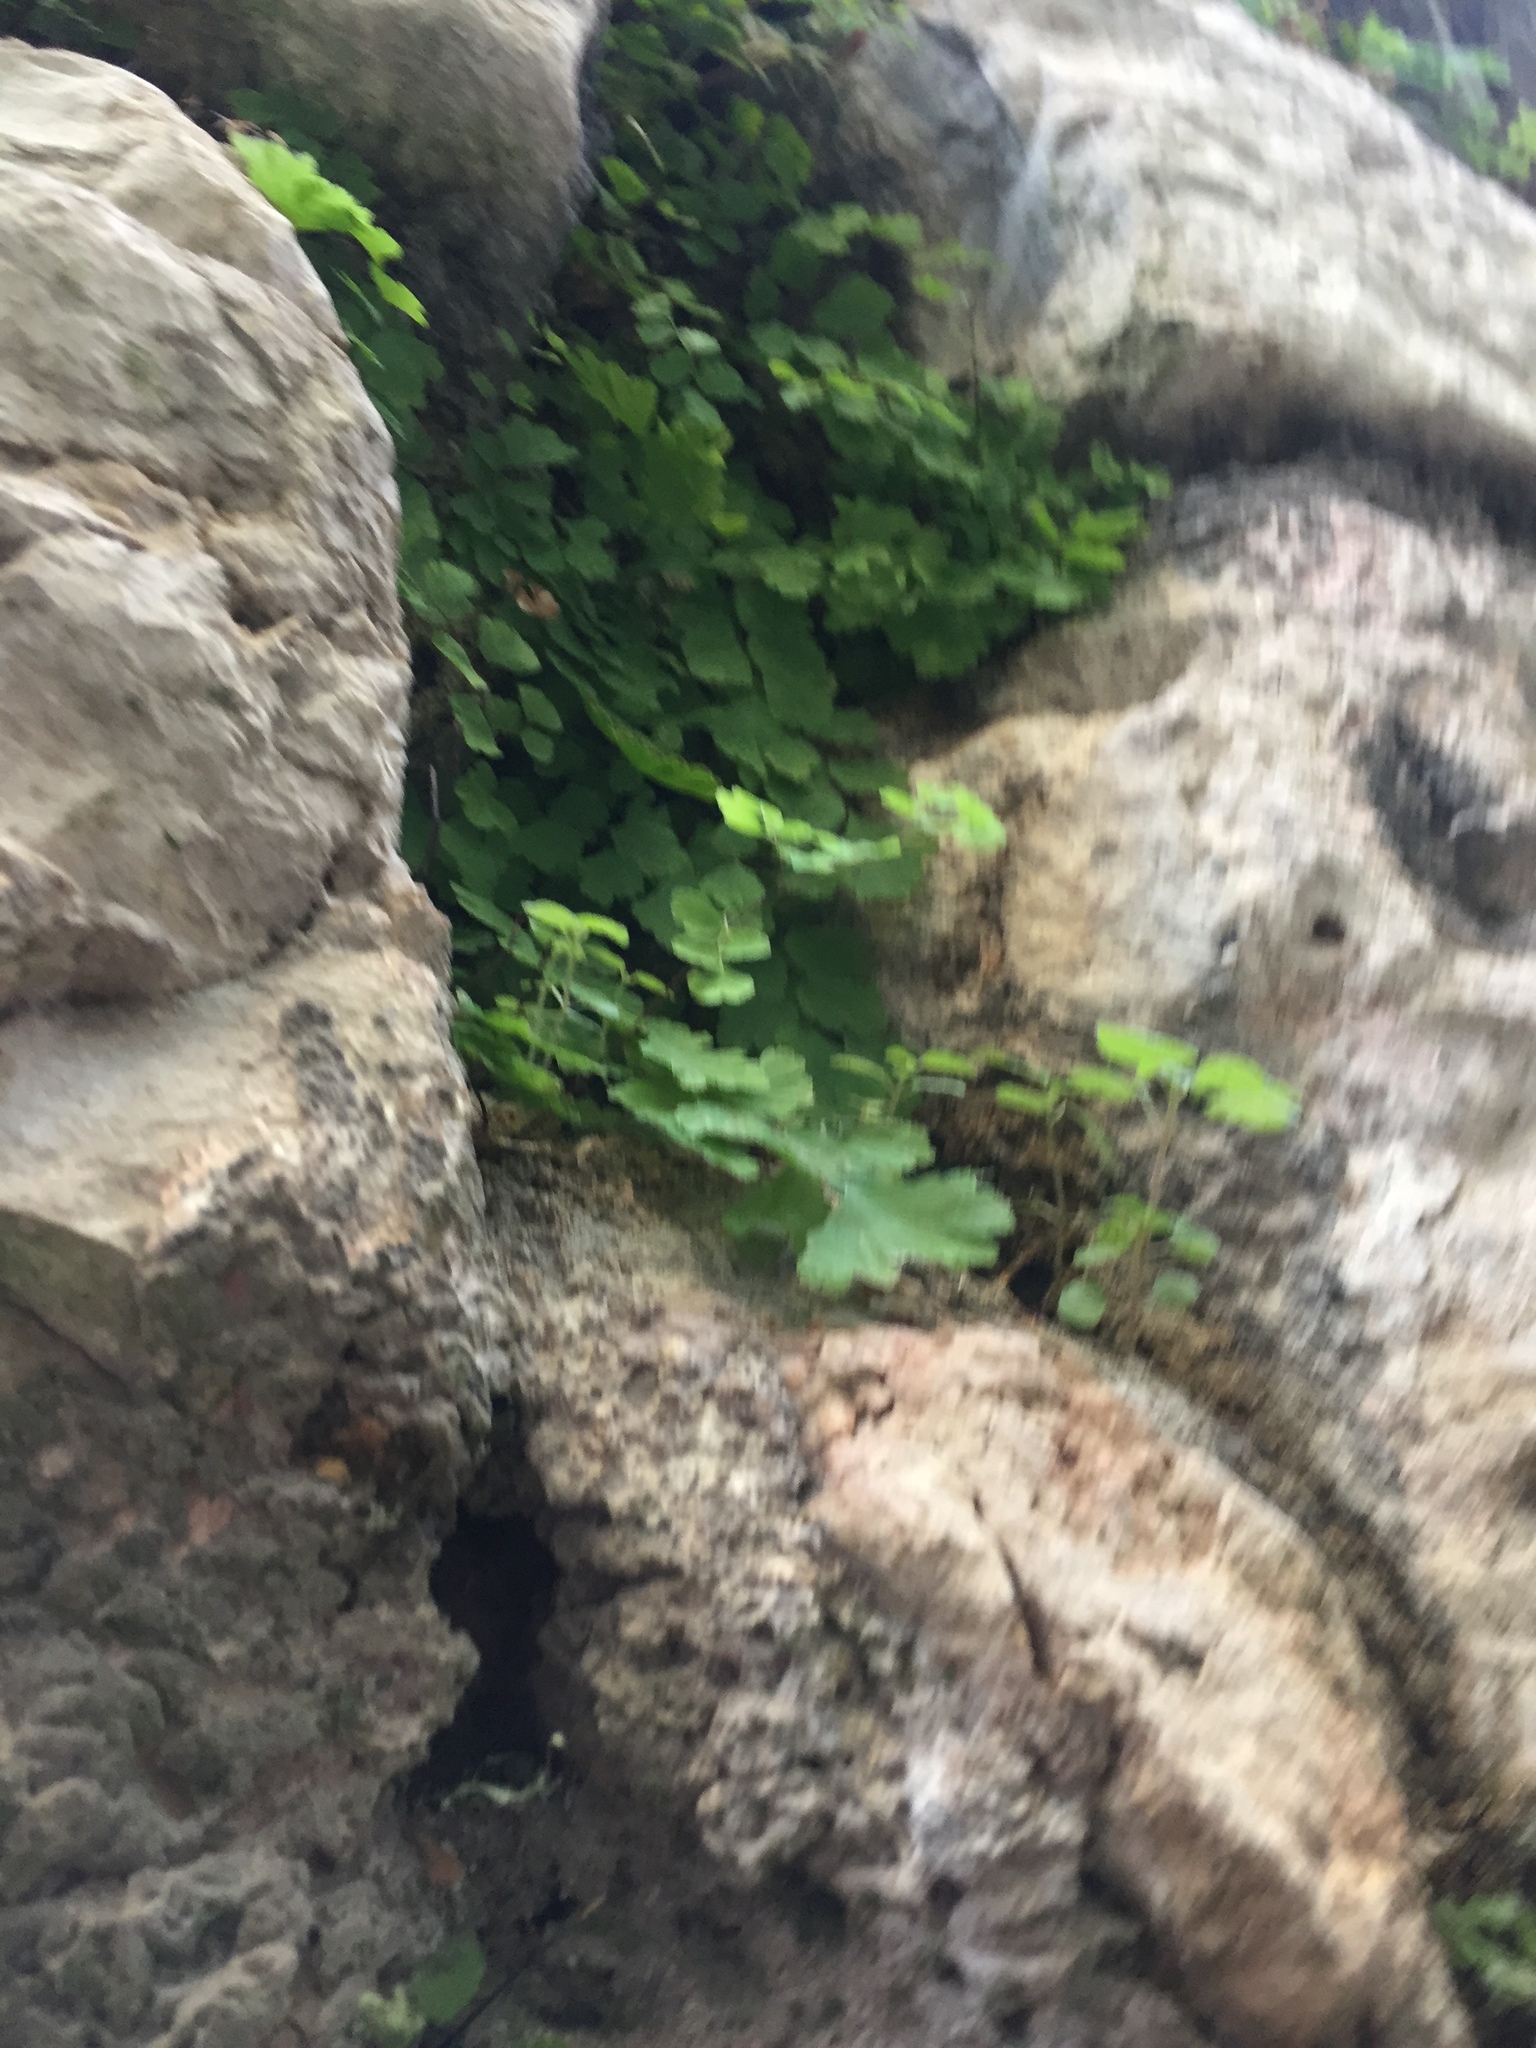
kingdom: Plantae
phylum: Tracheophyta
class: Polypodiopsida
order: Polypodiales
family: Pteridaceae
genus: Adiantum
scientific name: Adiantum capillus-veneris
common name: Maidenhair fern
